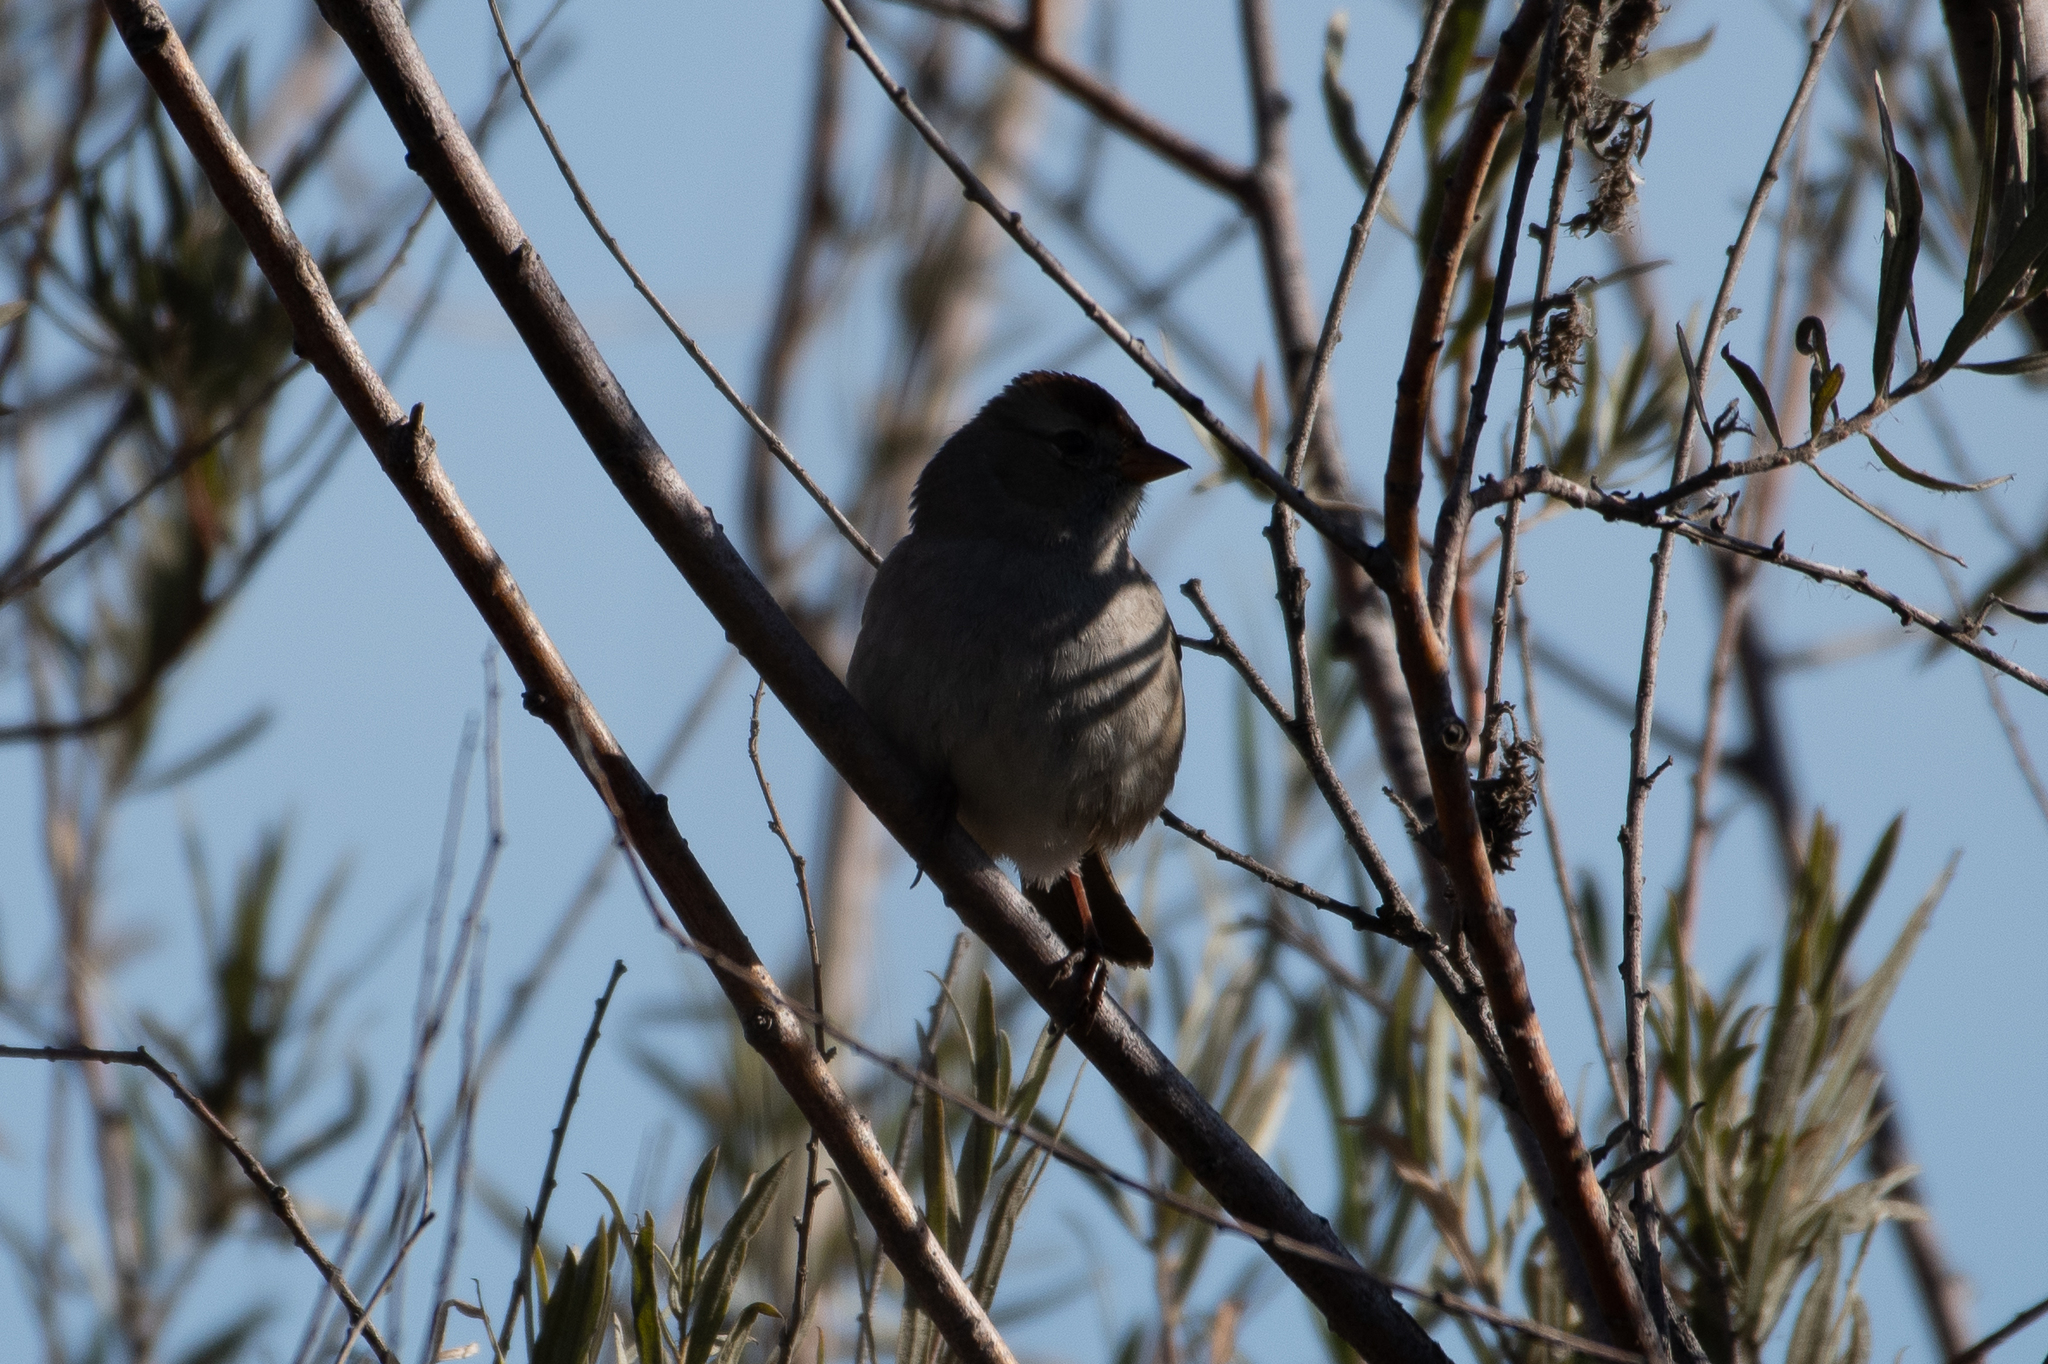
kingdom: Animalia
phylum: Chordata
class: Aves
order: Passeriformes
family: Passerellidae
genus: Zonotrichia
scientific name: Zonotrichia leucophrys
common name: White-crowned sparrow
